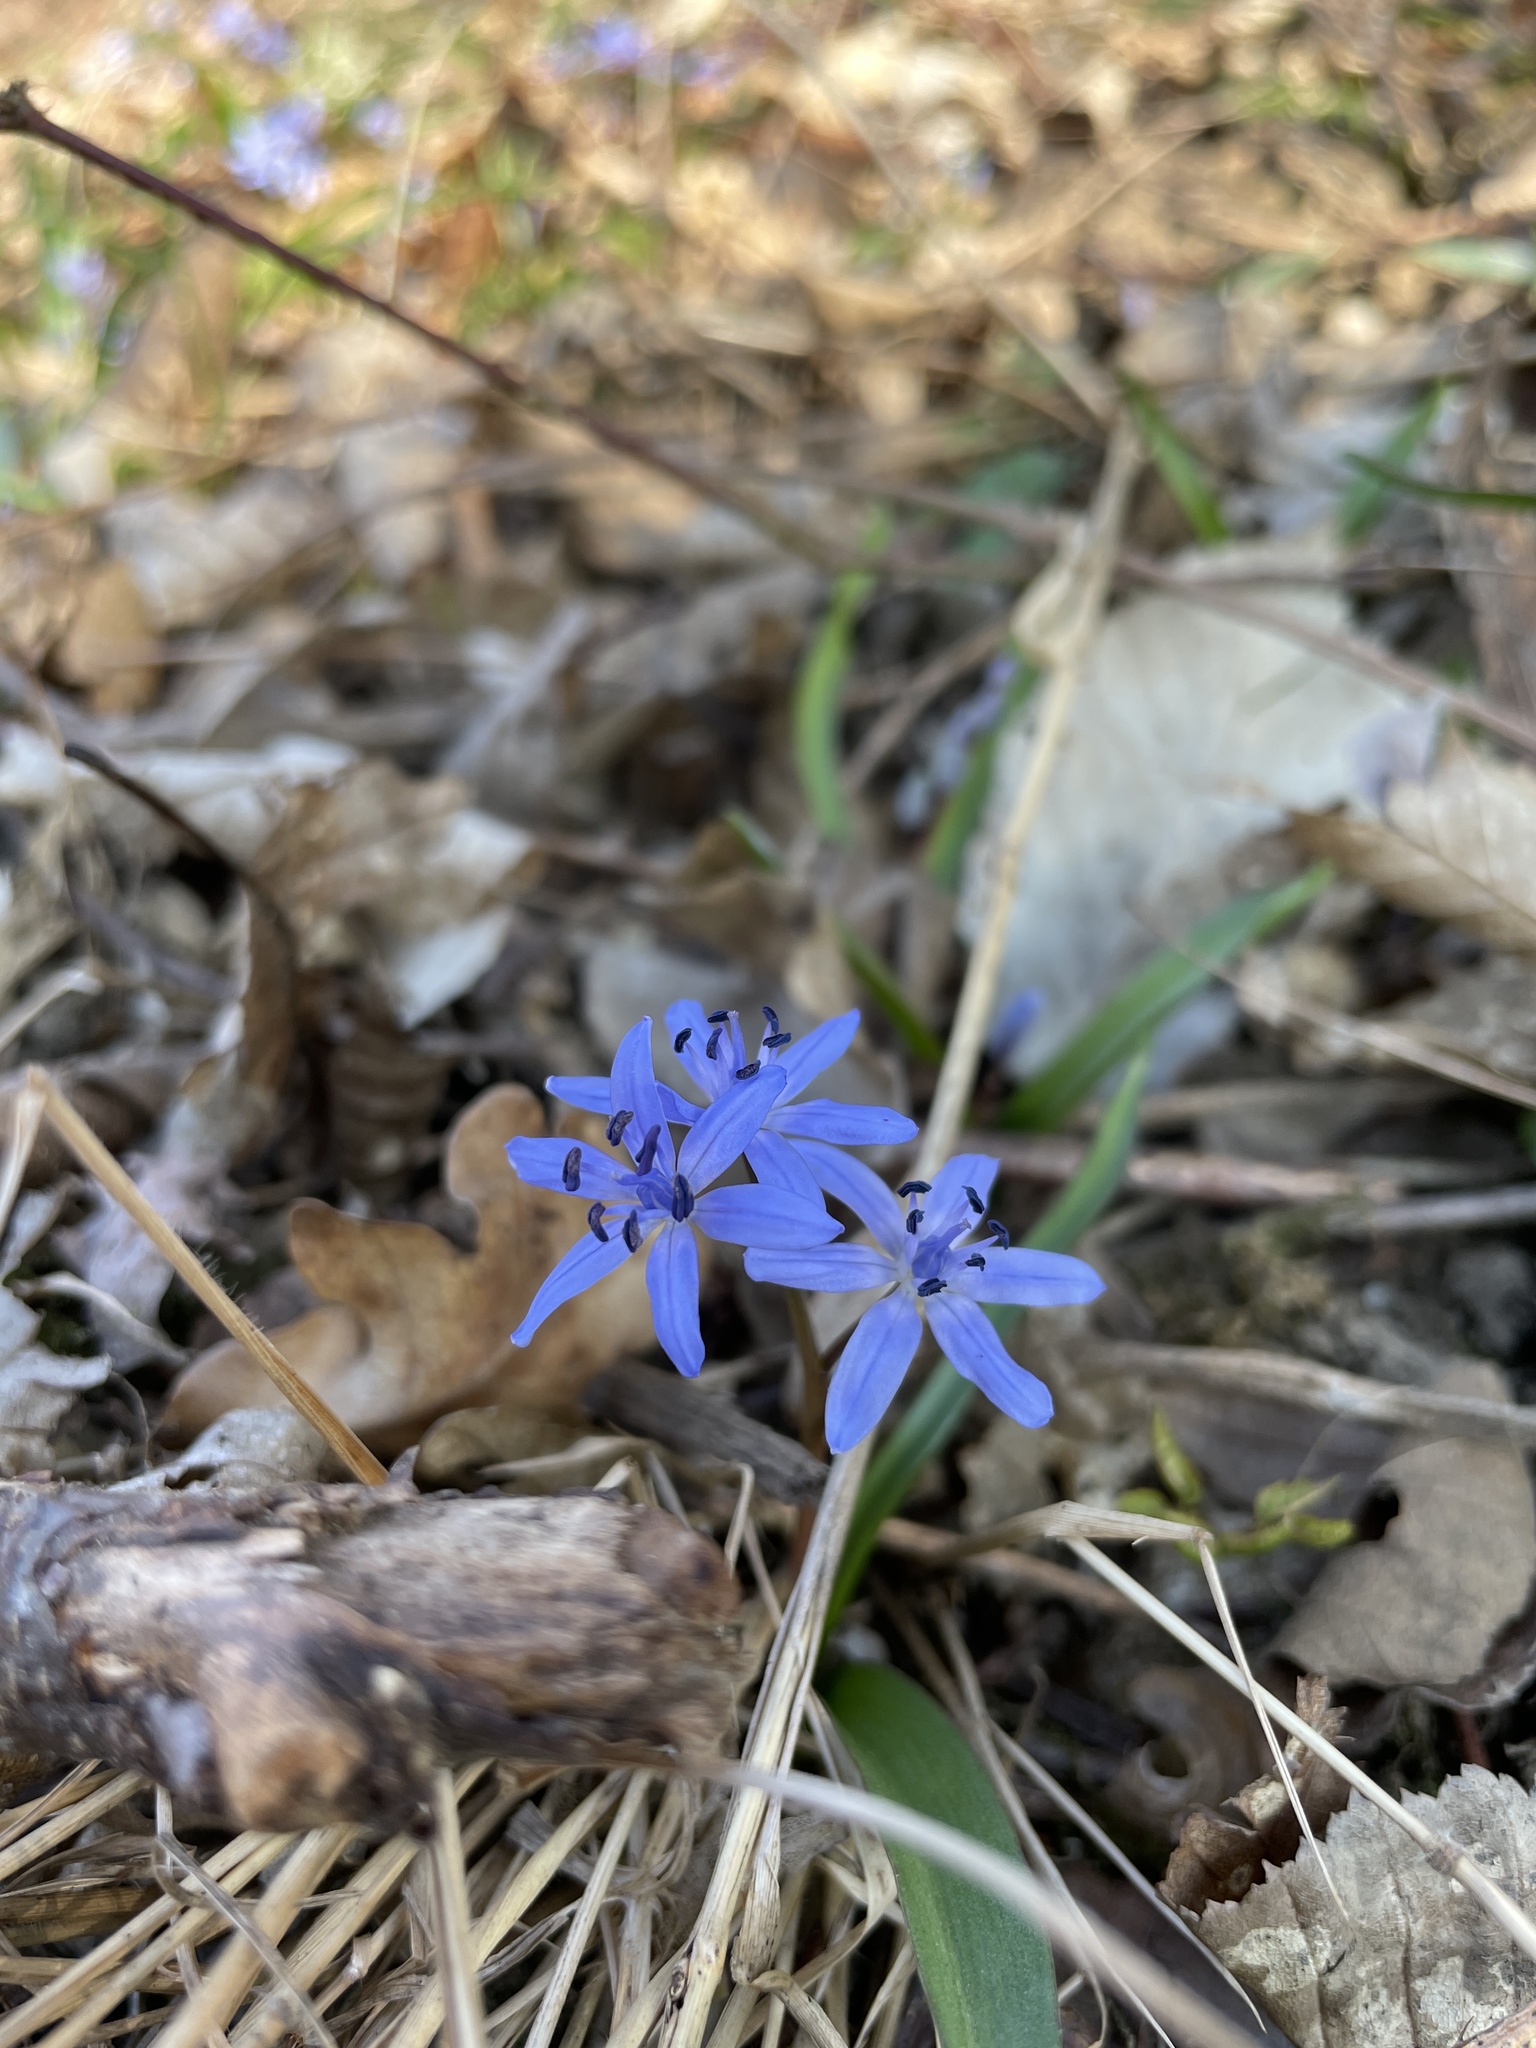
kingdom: Plantae
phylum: Tracheophyta
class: Liliopsida
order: Asparagales
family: Asparagaceae
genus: Scilla
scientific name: Scilla bifolia
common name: Alpine squill
